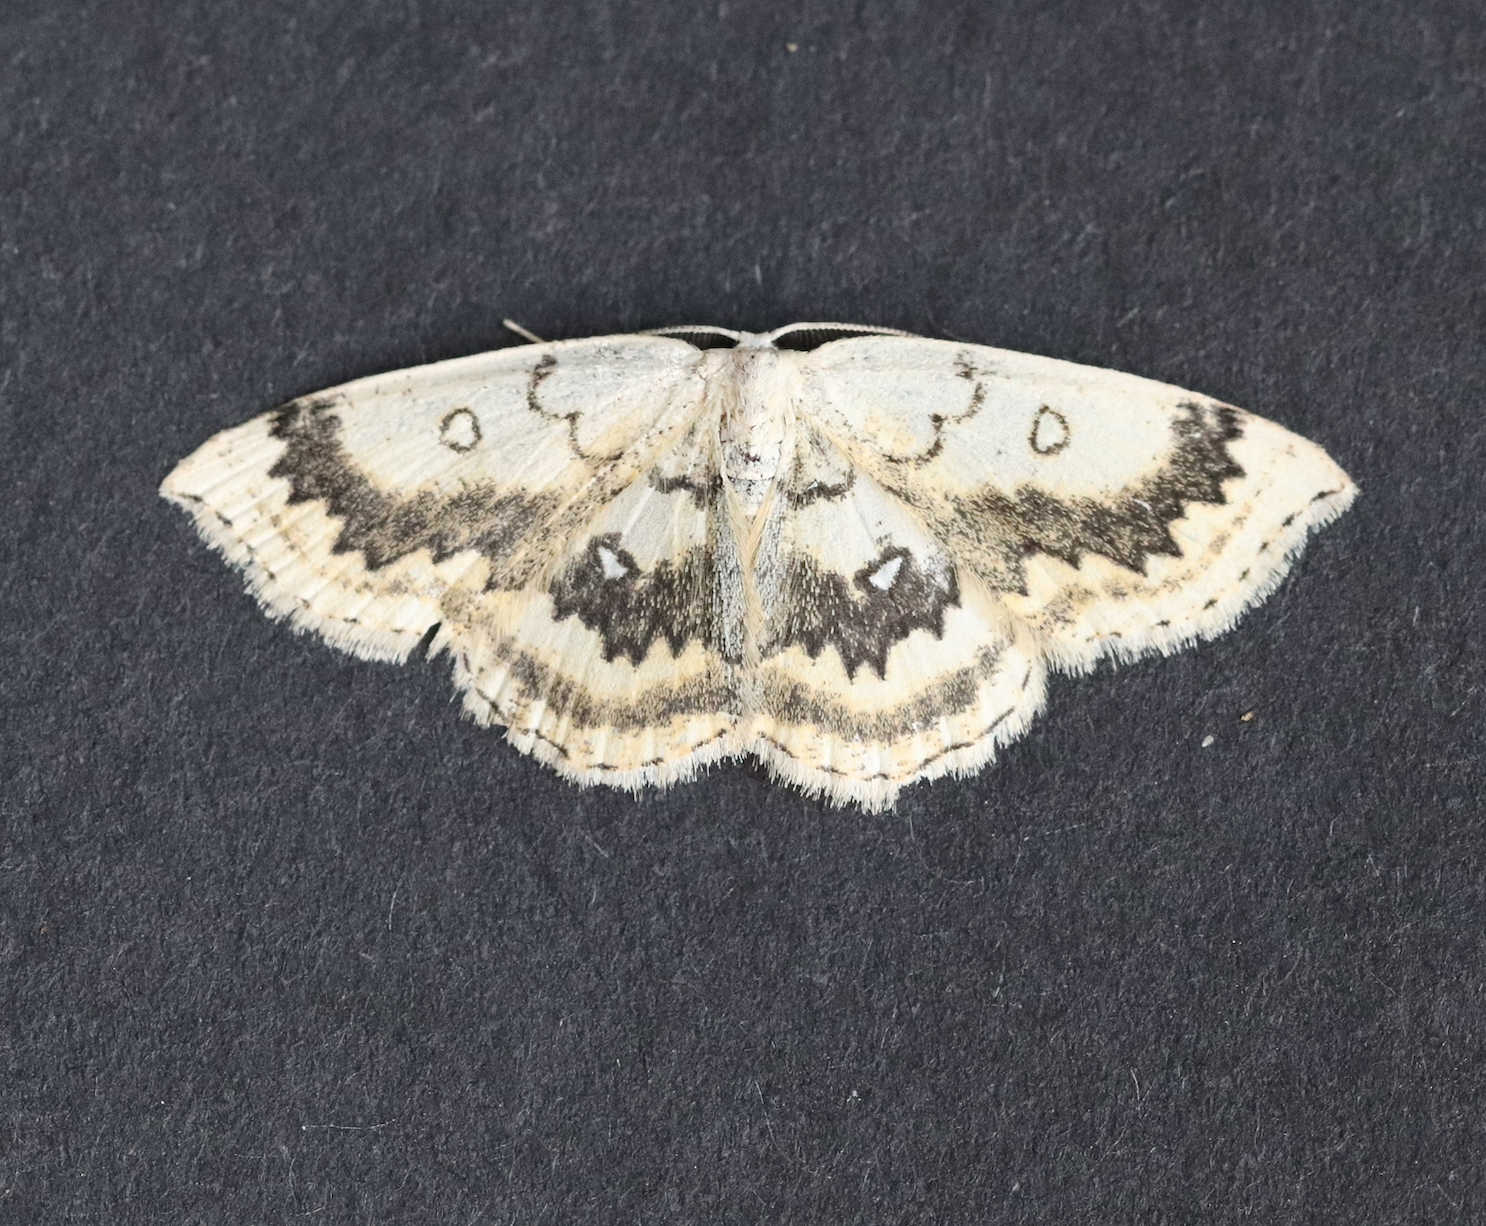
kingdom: Animalia
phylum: Arthropoda
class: Insecta
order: Lepidoptera
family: Geometridae
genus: Cyclophora
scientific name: Cyclophora annularia
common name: Mocha
